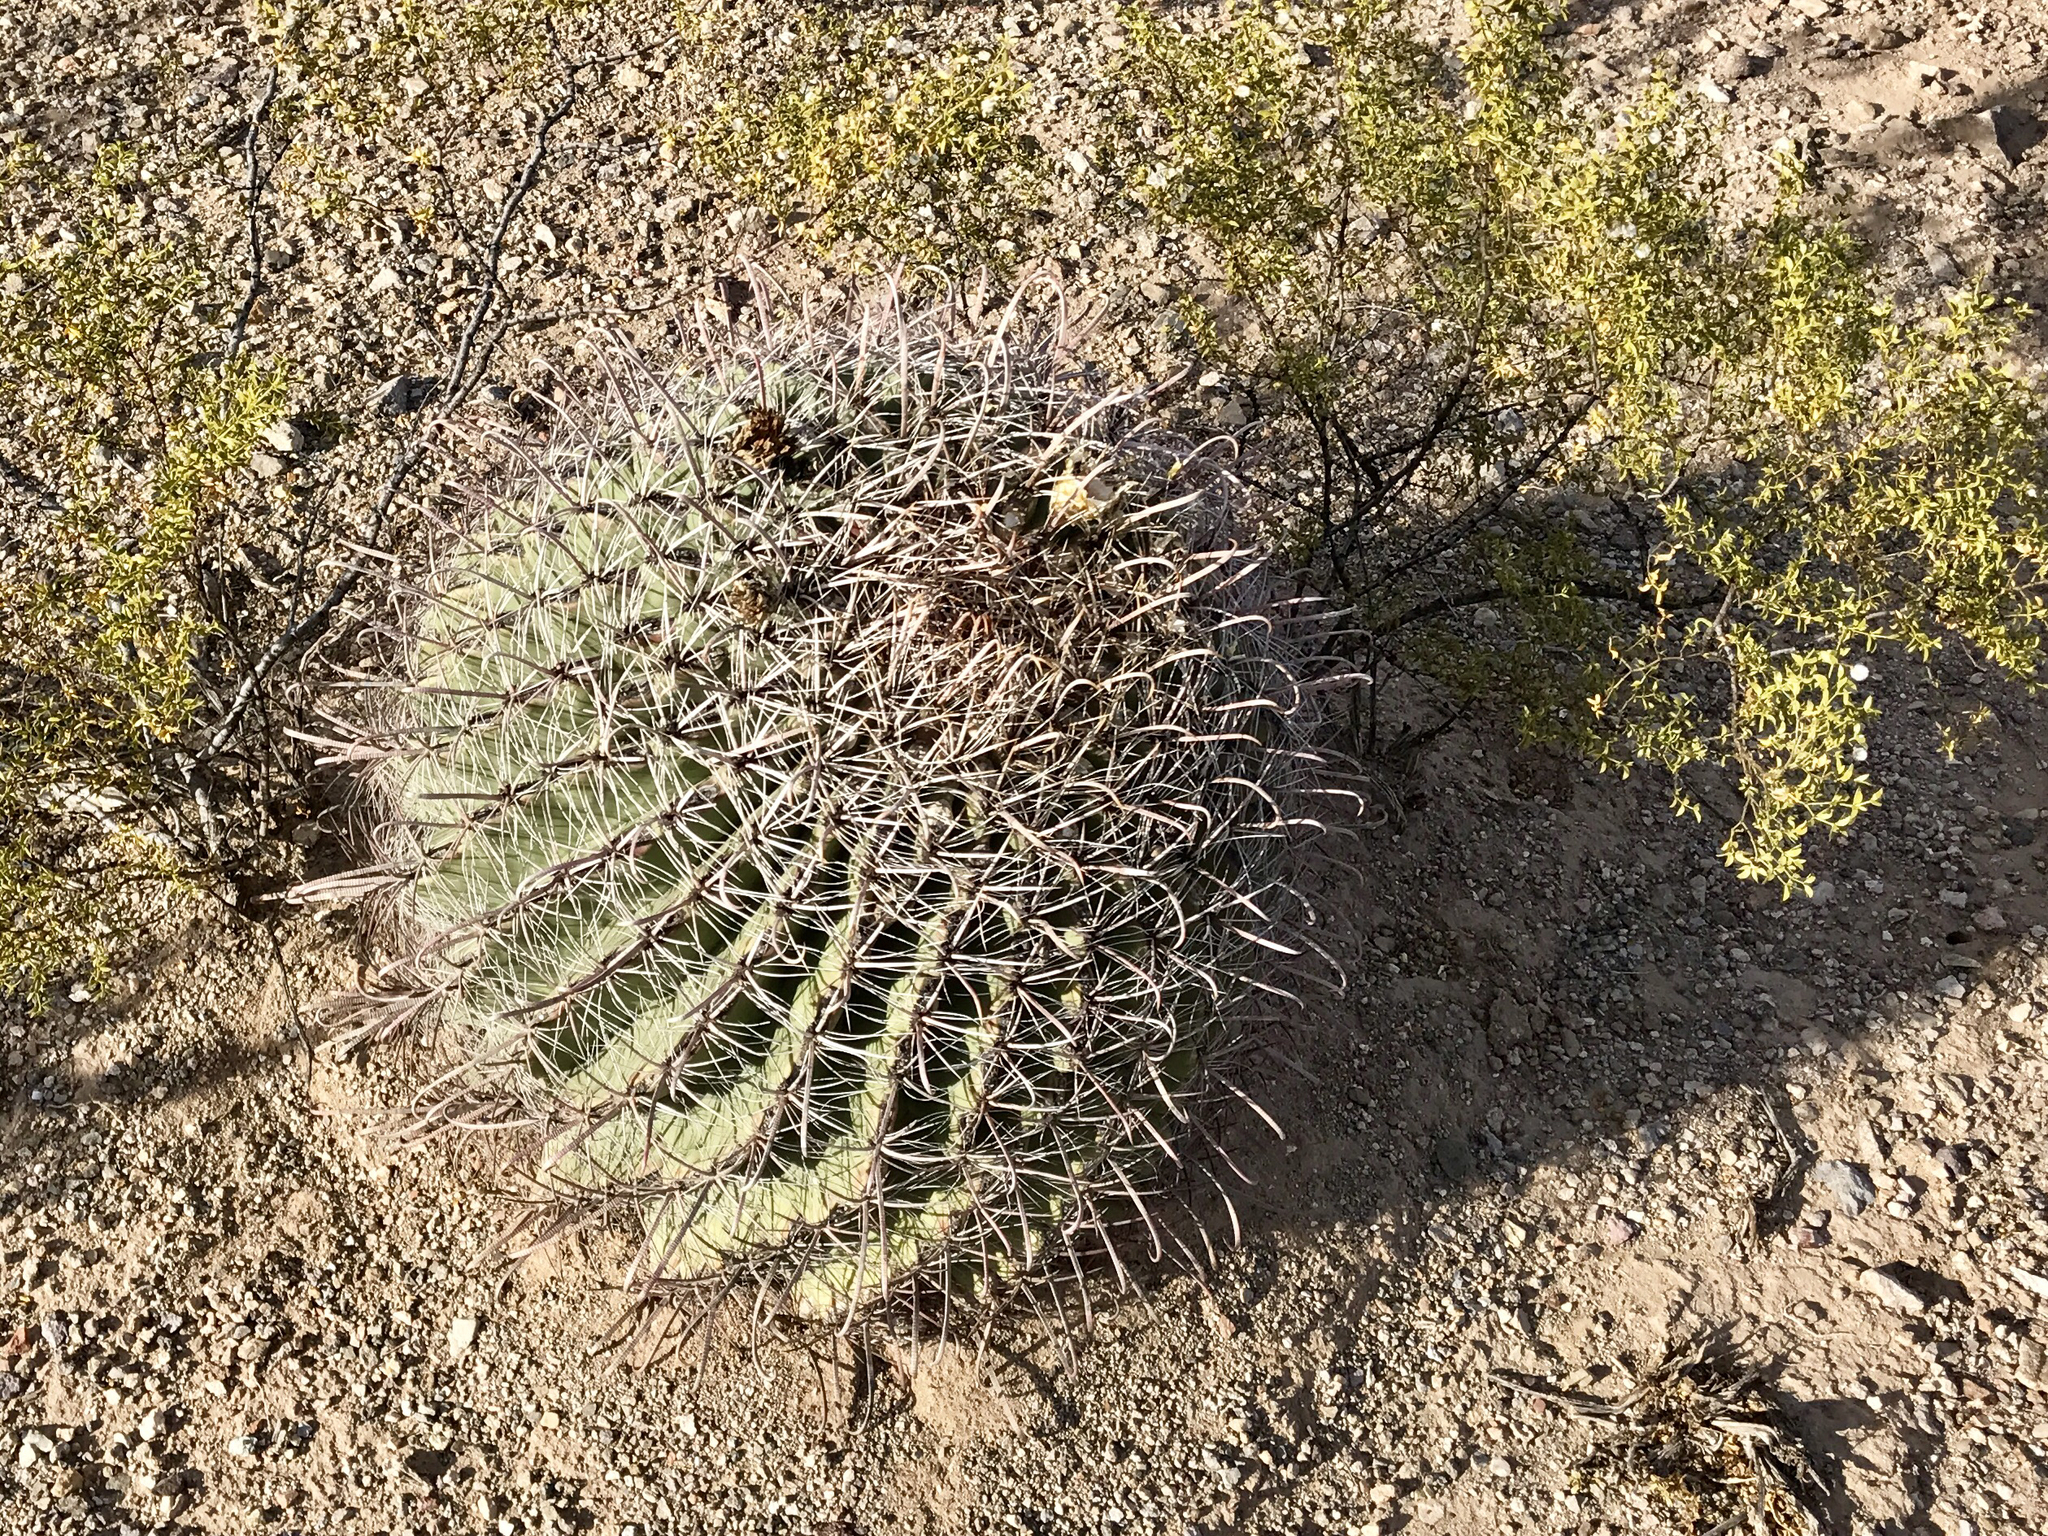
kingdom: Plantae
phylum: Tracheophyta
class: Magnoliopsida
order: Caryophyllales
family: Cactaceae
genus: Ferocactus
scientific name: Ferocactus wislizeni
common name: Candy barrel cactus
